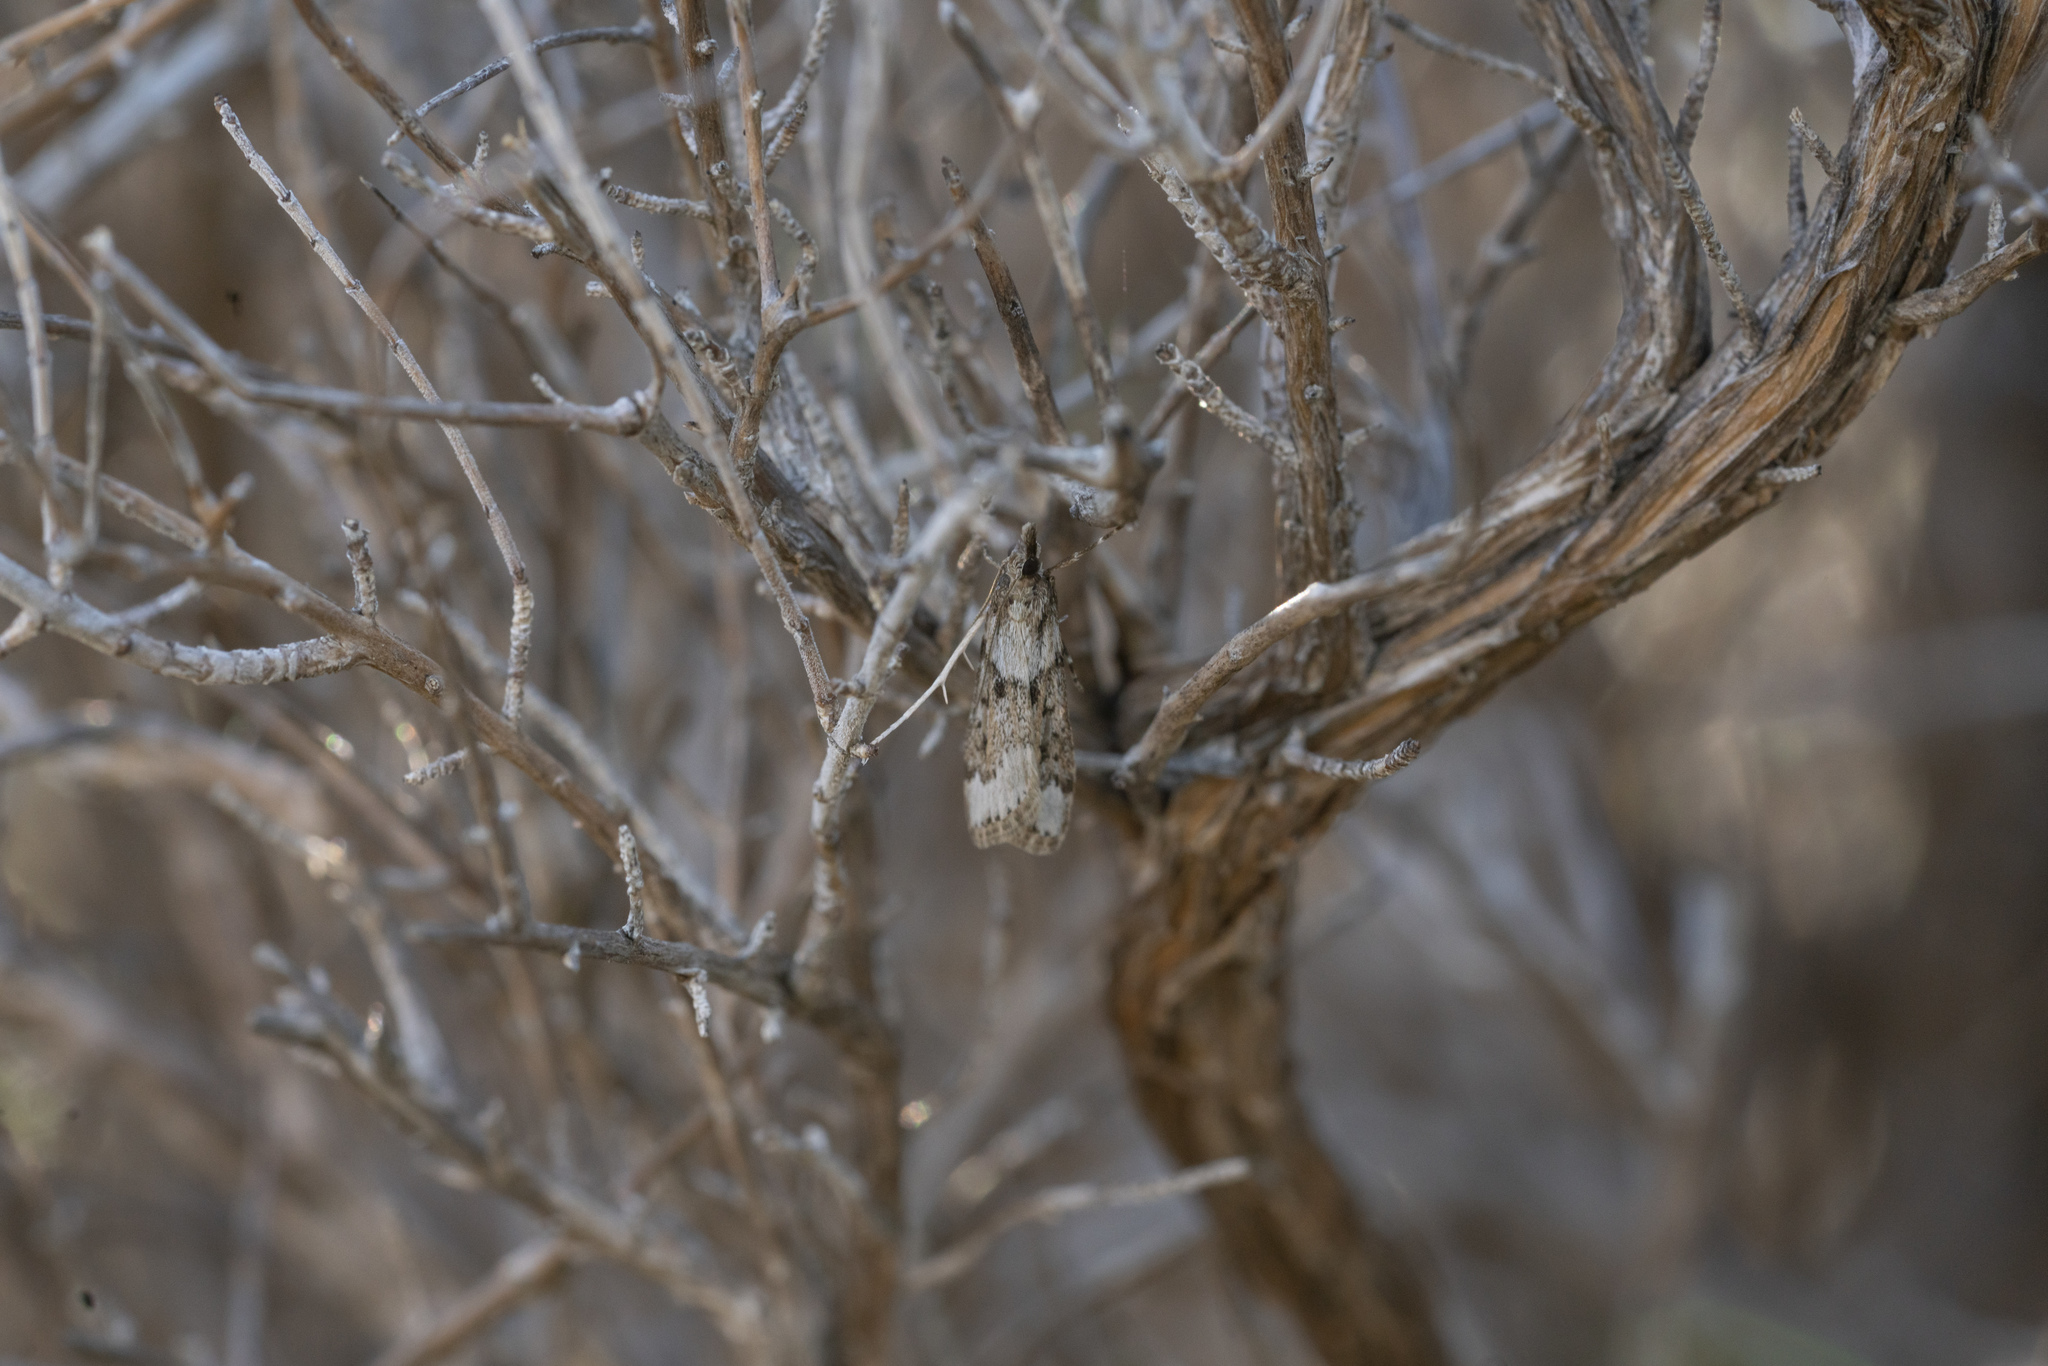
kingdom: Animalia
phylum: Arthropoda
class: Insecta
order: Lepidoptera
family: Crambidae
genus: Eudonia
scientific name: Eudonia angustea
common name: Narrow-winged grey
